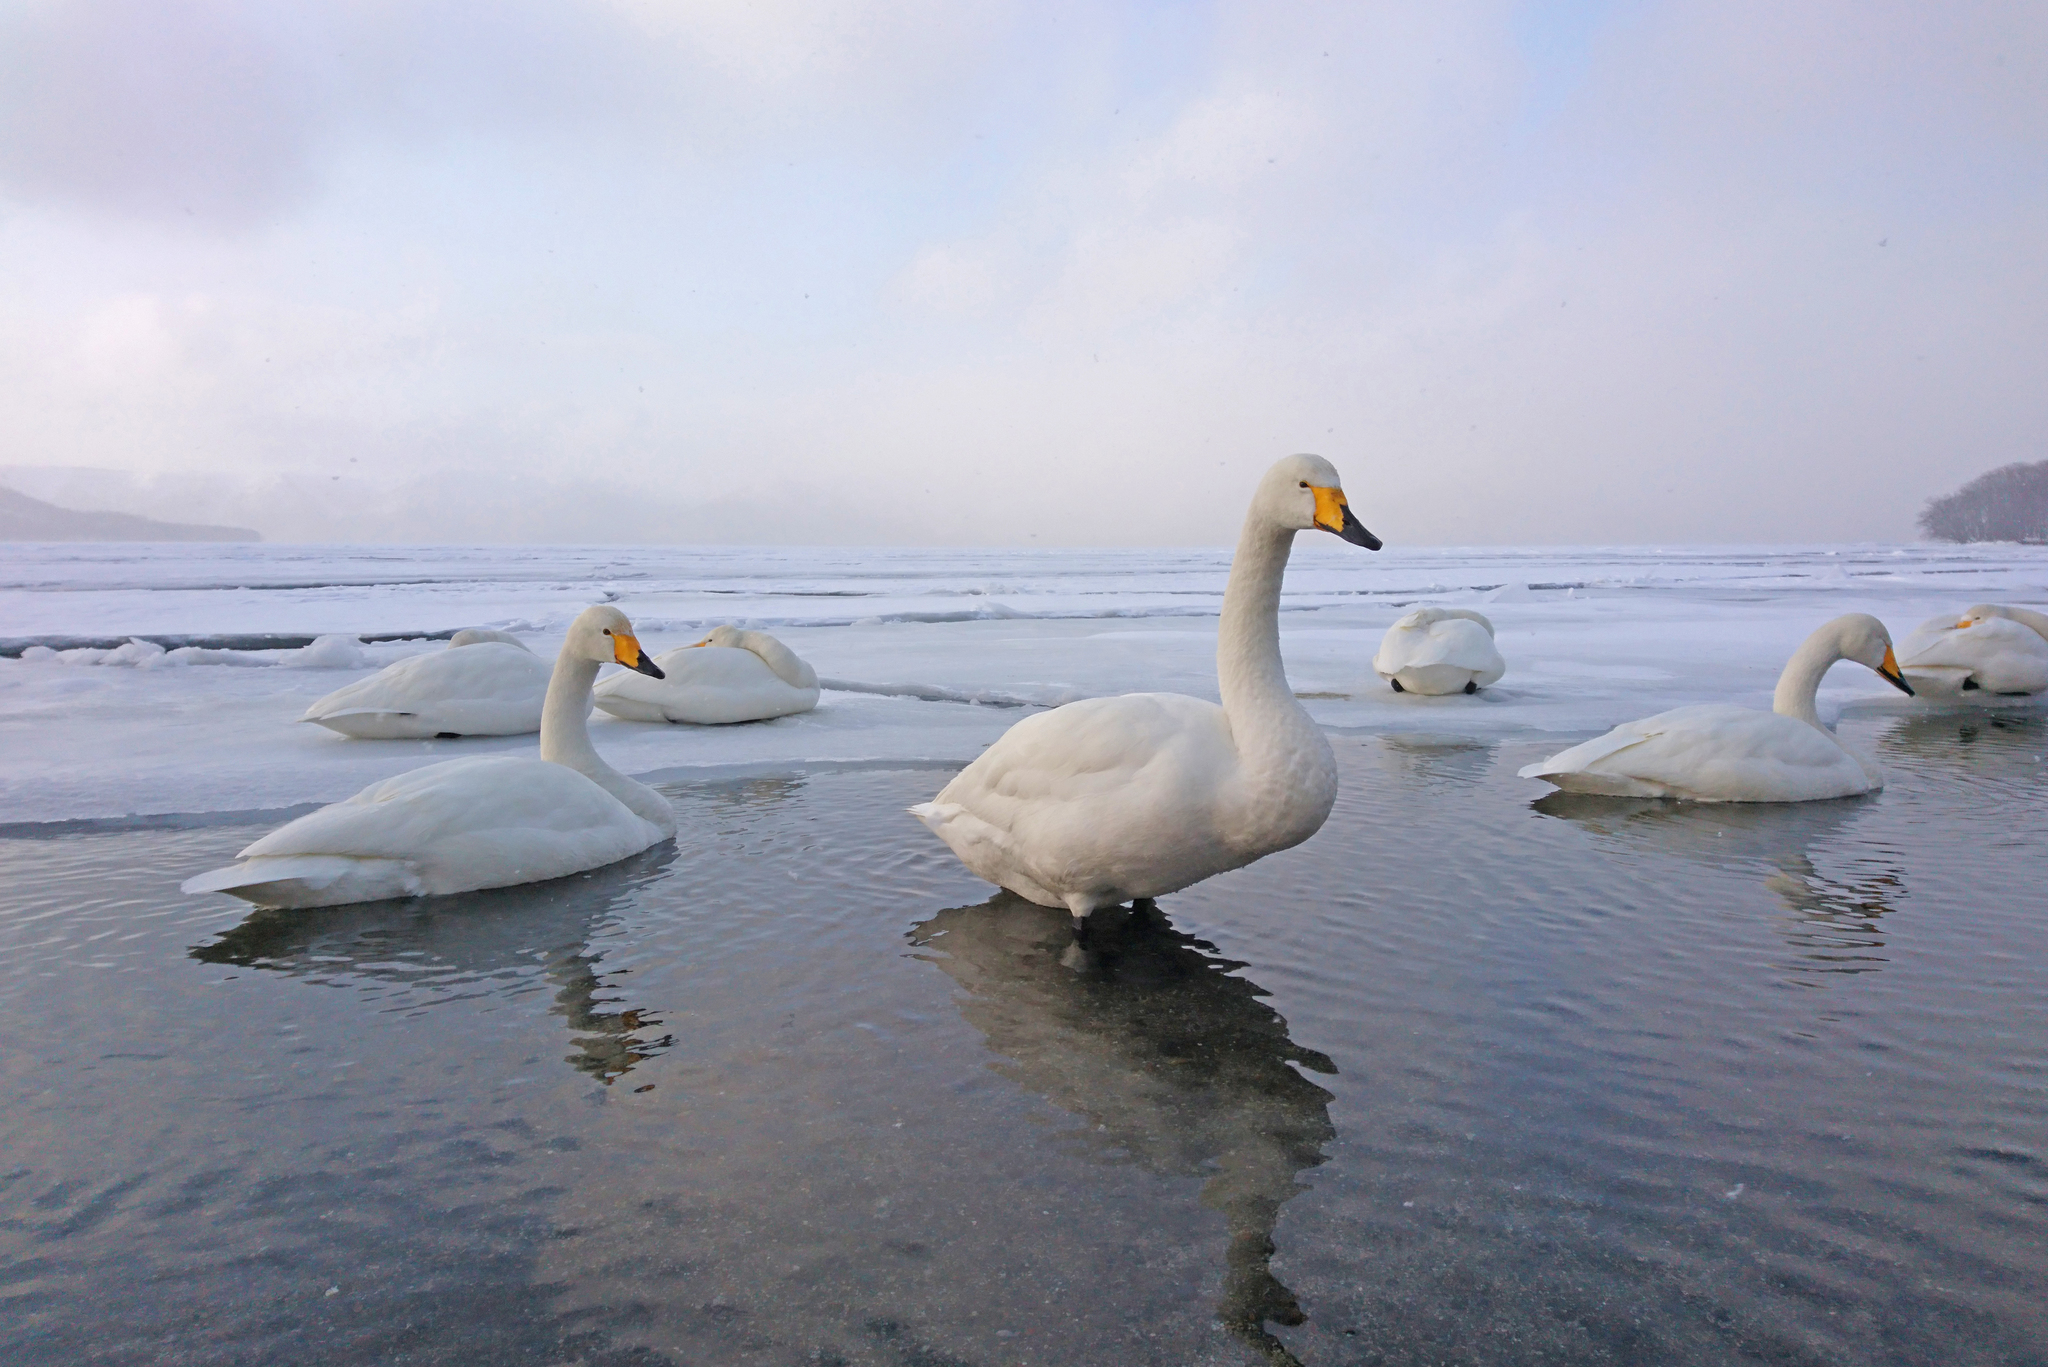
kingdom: Animalia
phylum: Chordata
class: Aves
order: Anseriformes
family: Anatidae
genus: Cygnus
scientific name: Cygnus cygnus
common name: Whooper swan
